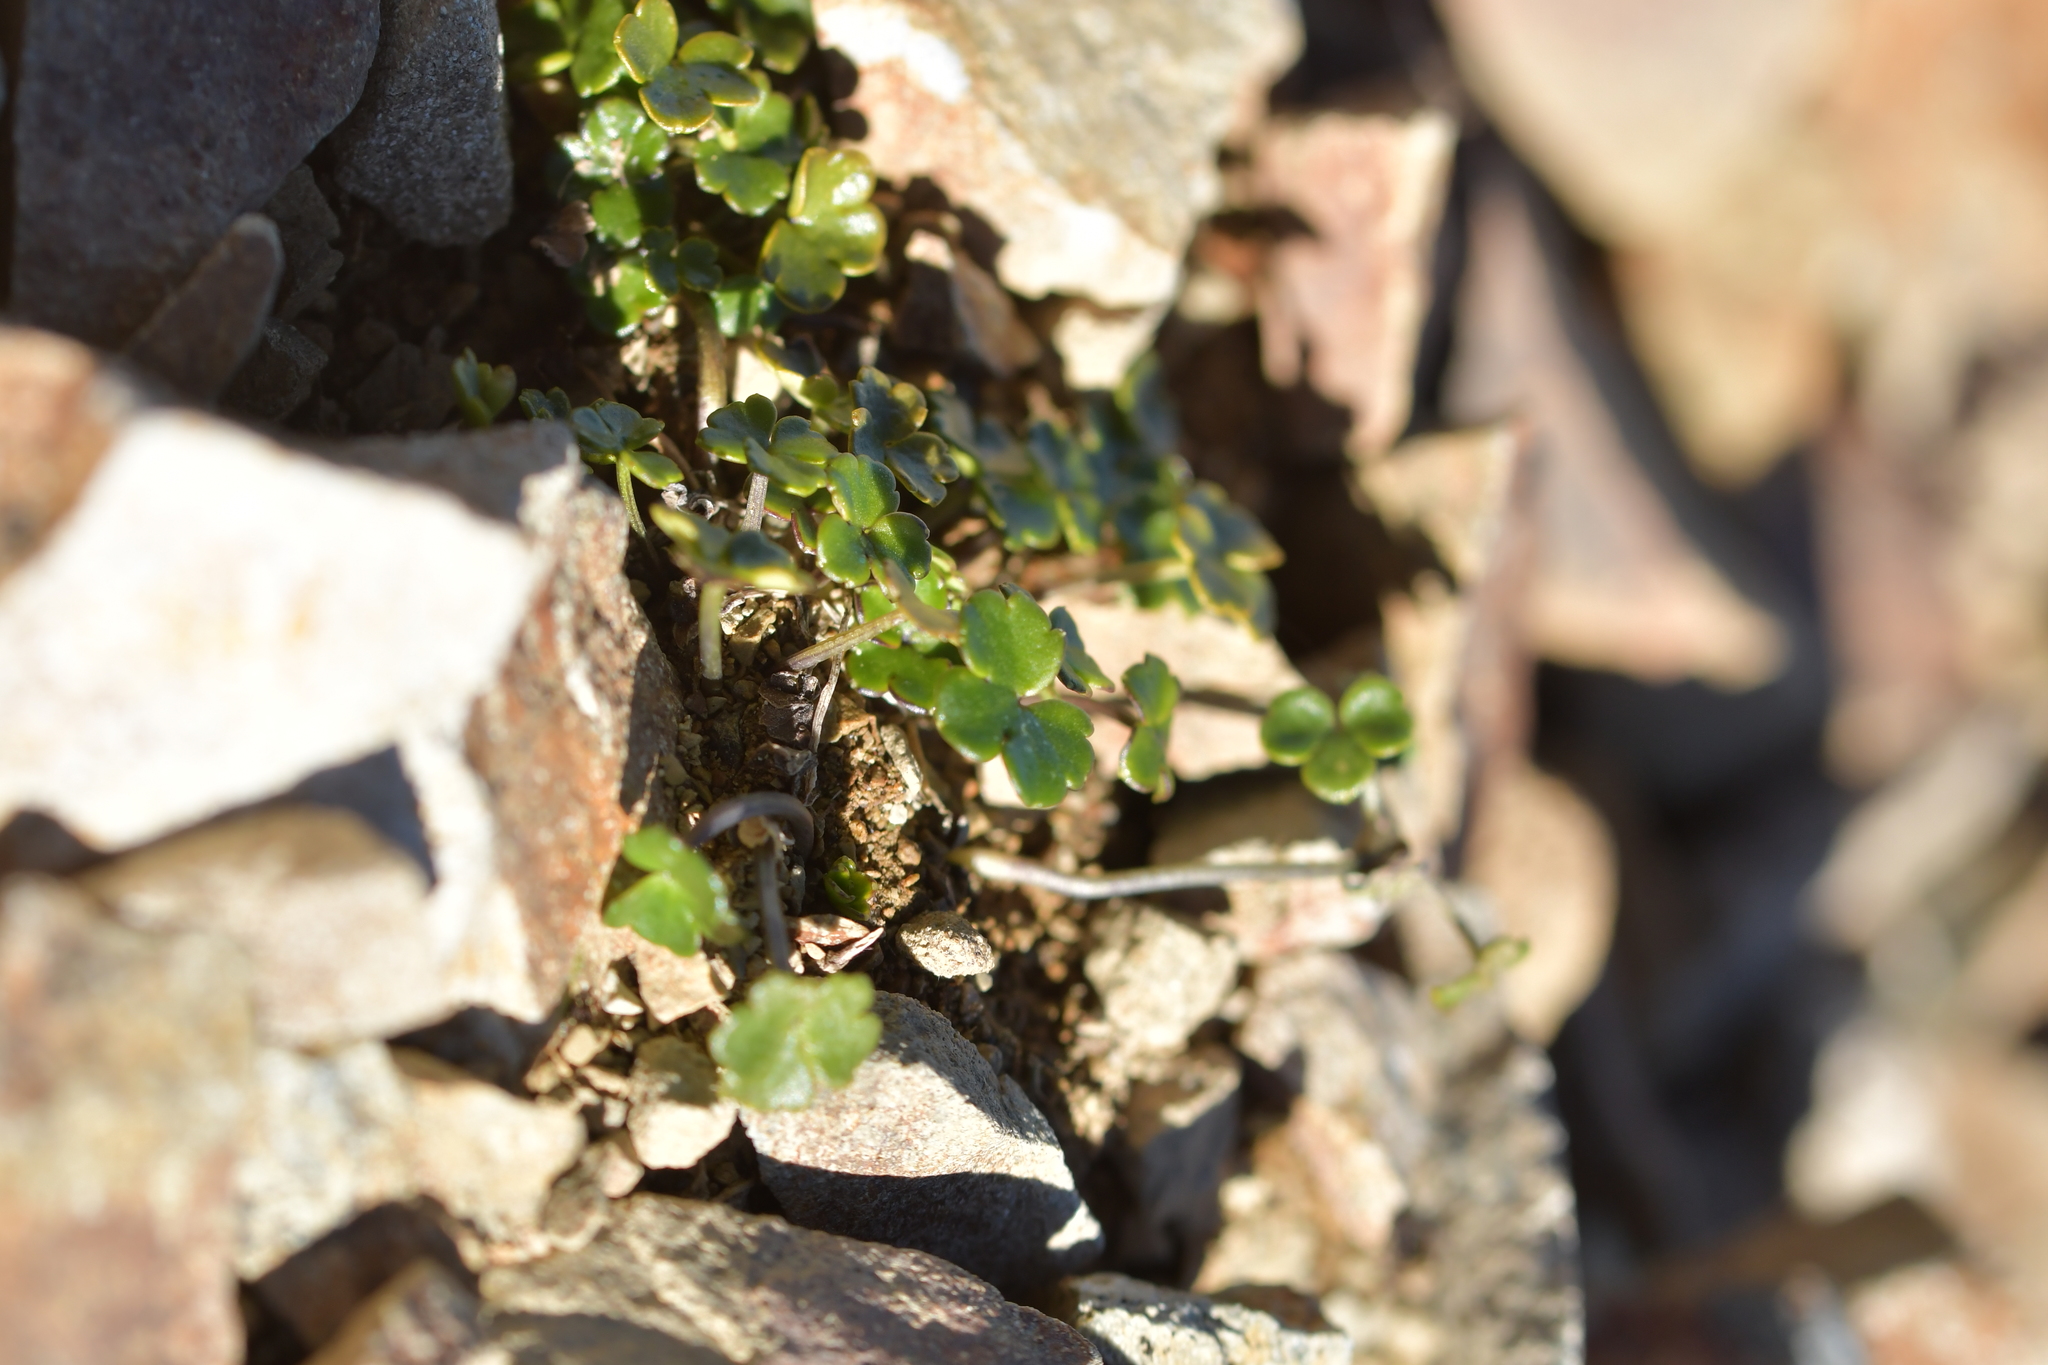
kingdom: Plantae
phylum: Tracheophyta
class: Magnoliopsida
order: Apiales
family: Apiaceae
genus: Azorella
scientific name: Azorella hydrocotyloides
